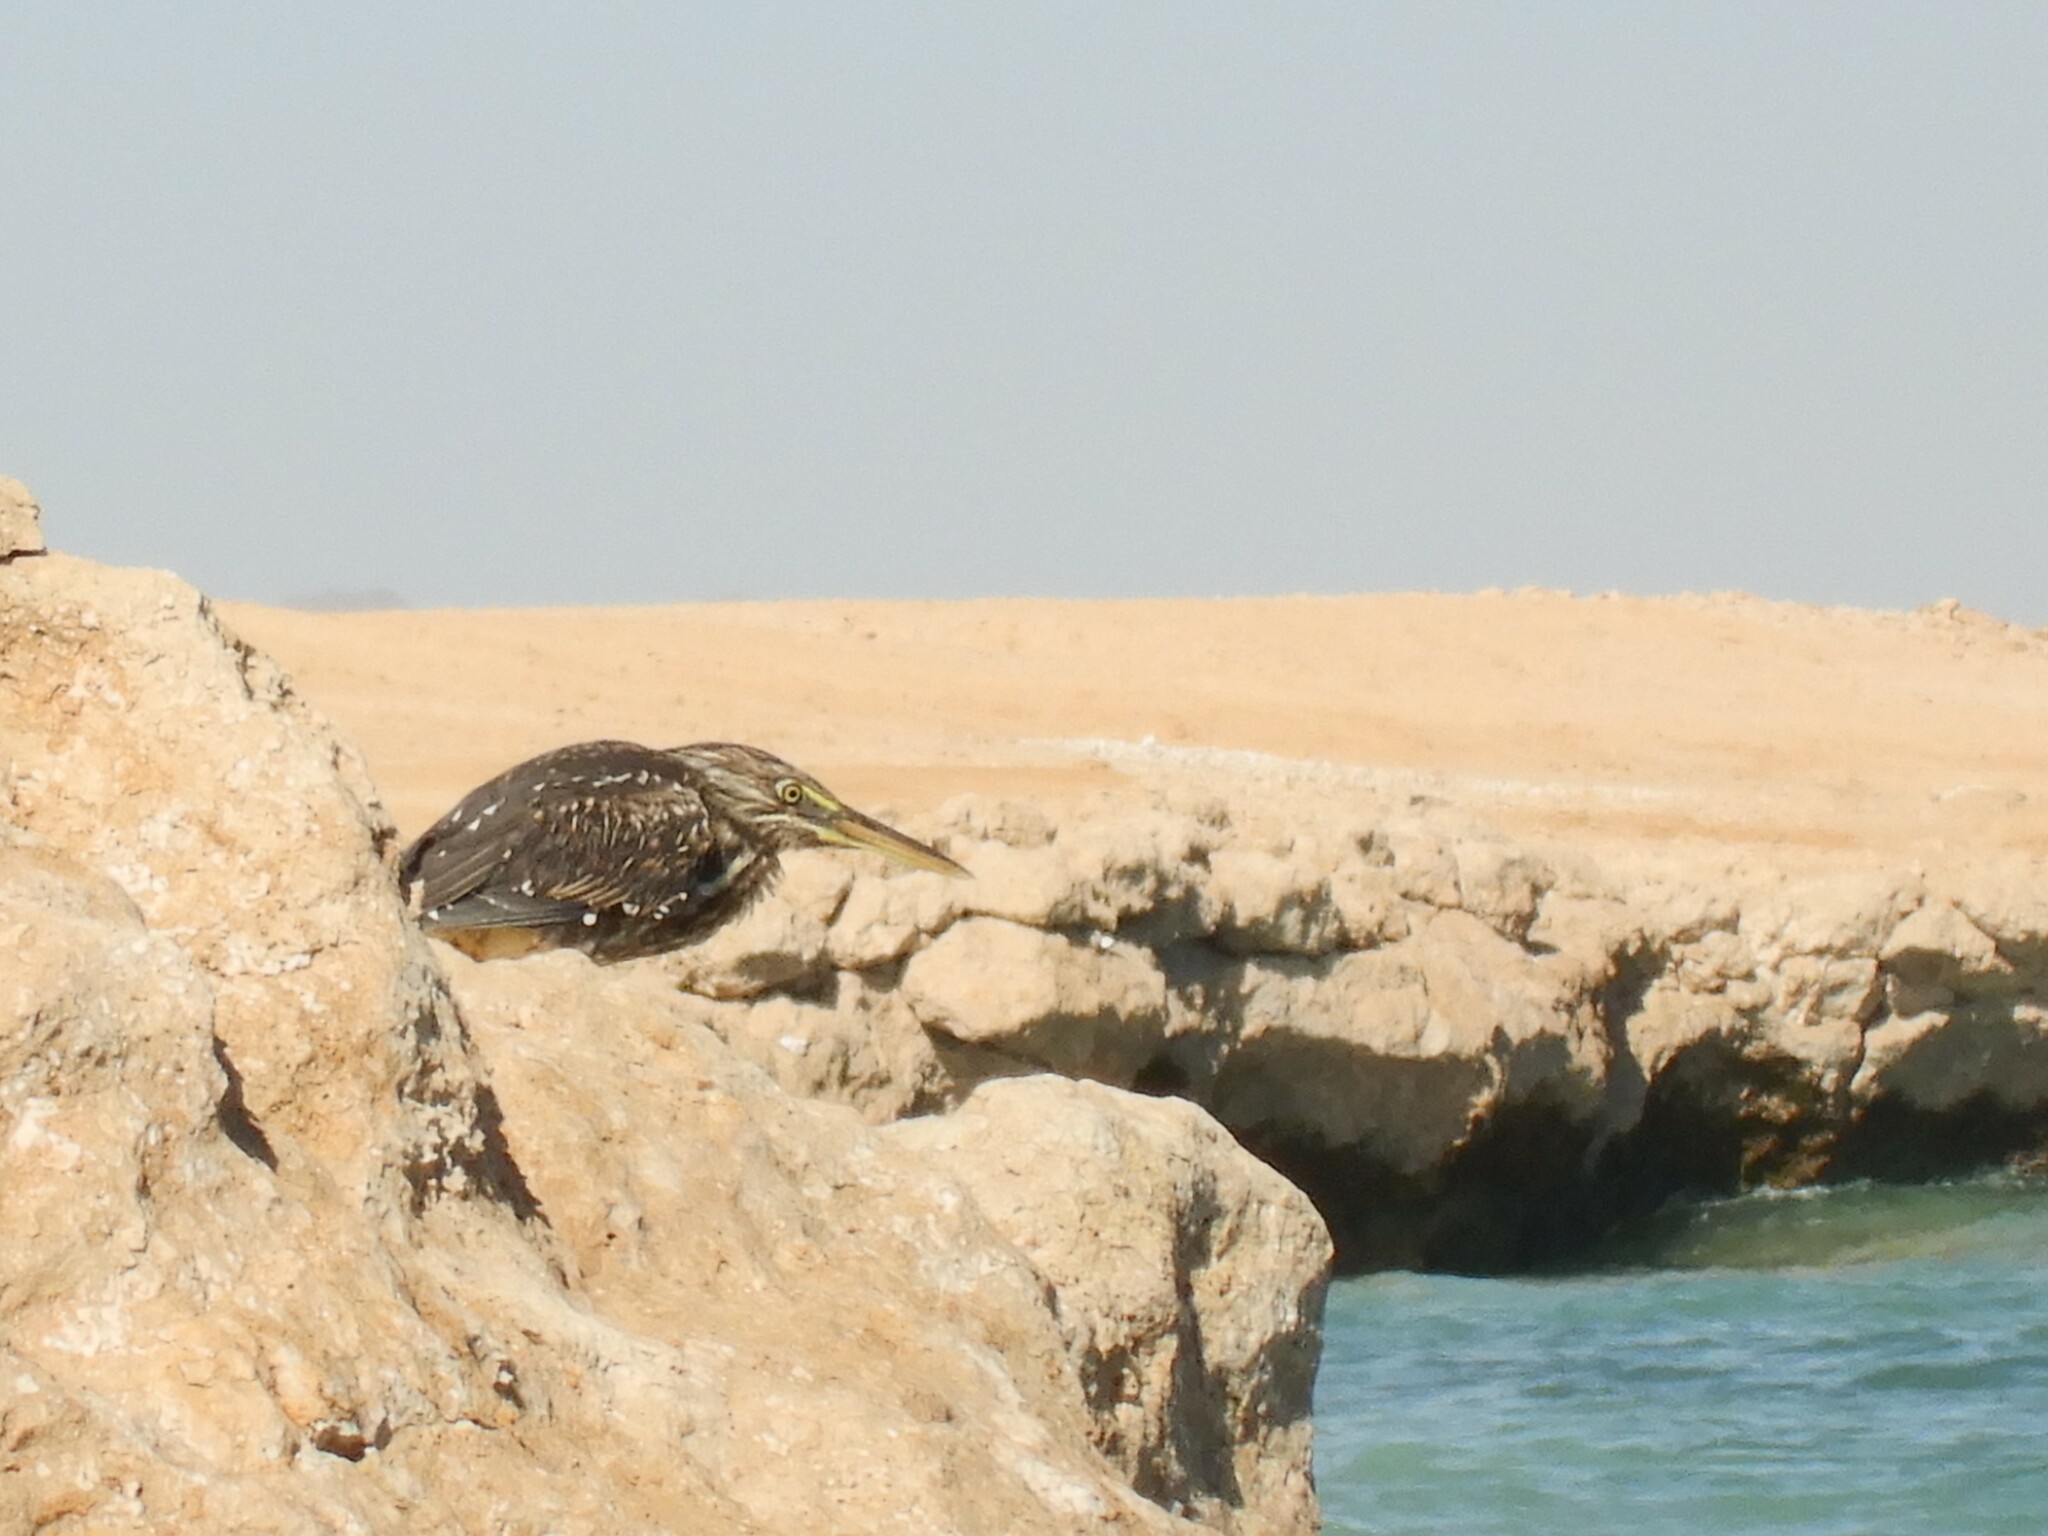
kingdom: Animalia
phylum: Chordata
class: Aves
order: Pelecaniformes
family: Ardeidae
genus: Butorides
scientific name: Butorides striata
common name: Striated heron
